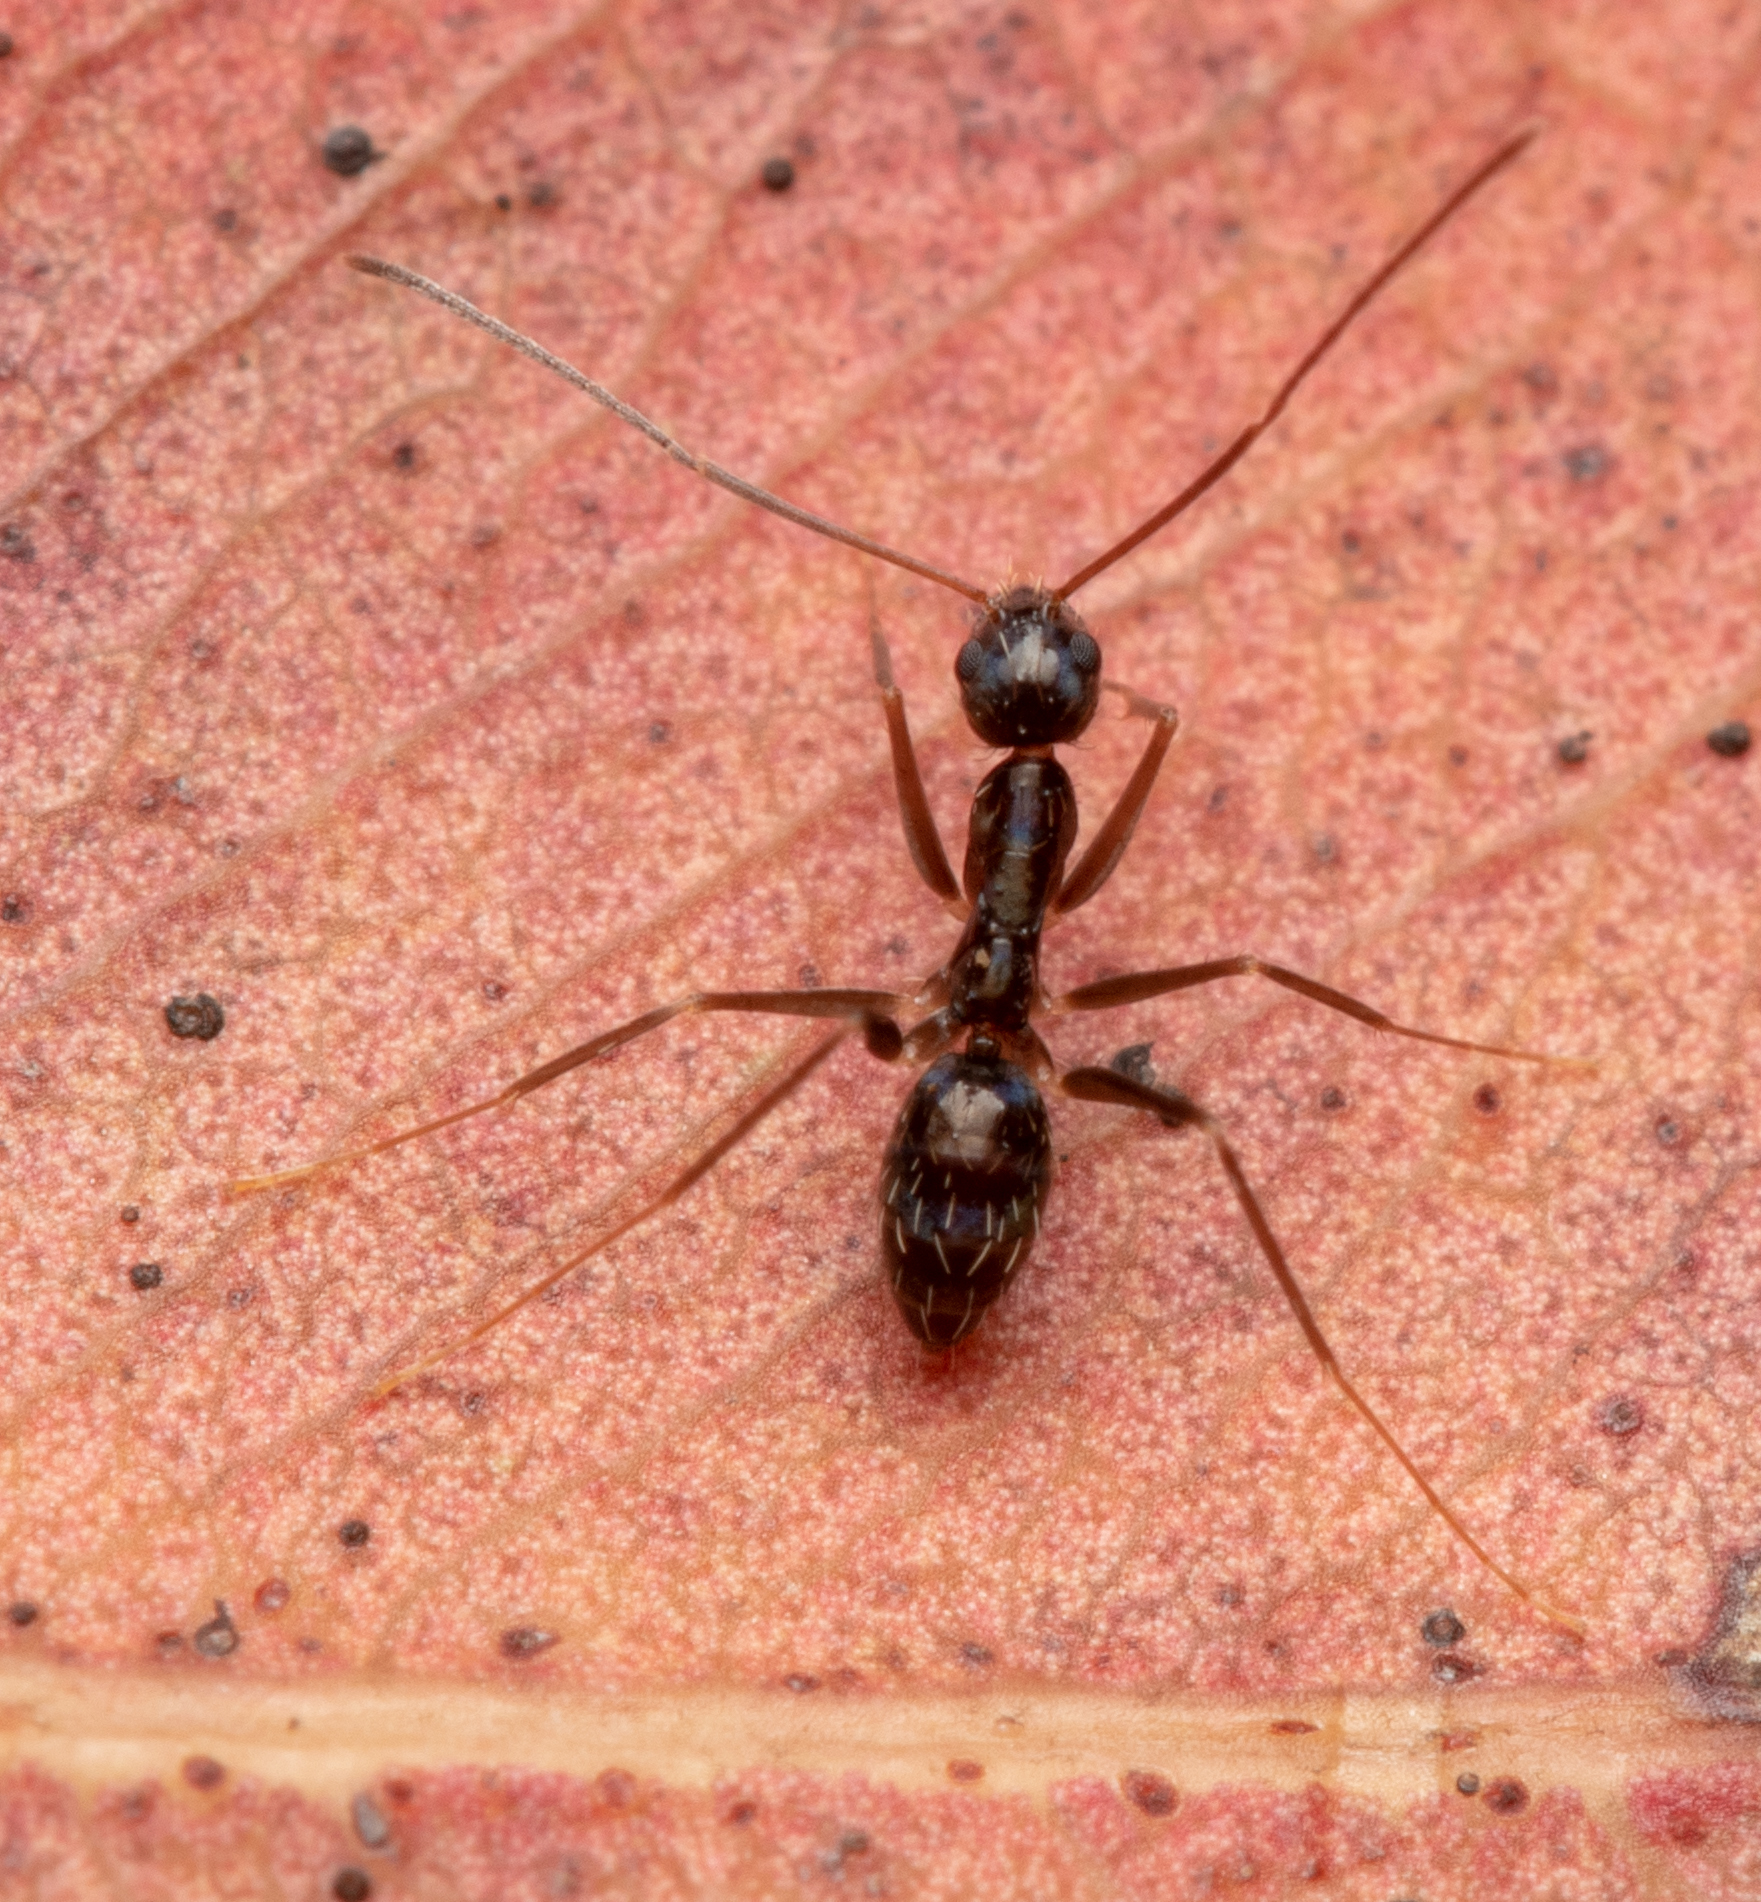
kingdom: Animalia
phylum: Arthropoda
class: Insecta
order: Hymenoptera
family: Formicidae
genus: Paratrechina
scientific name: Paratrechina longicornis
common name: Longhorned crazy ant
